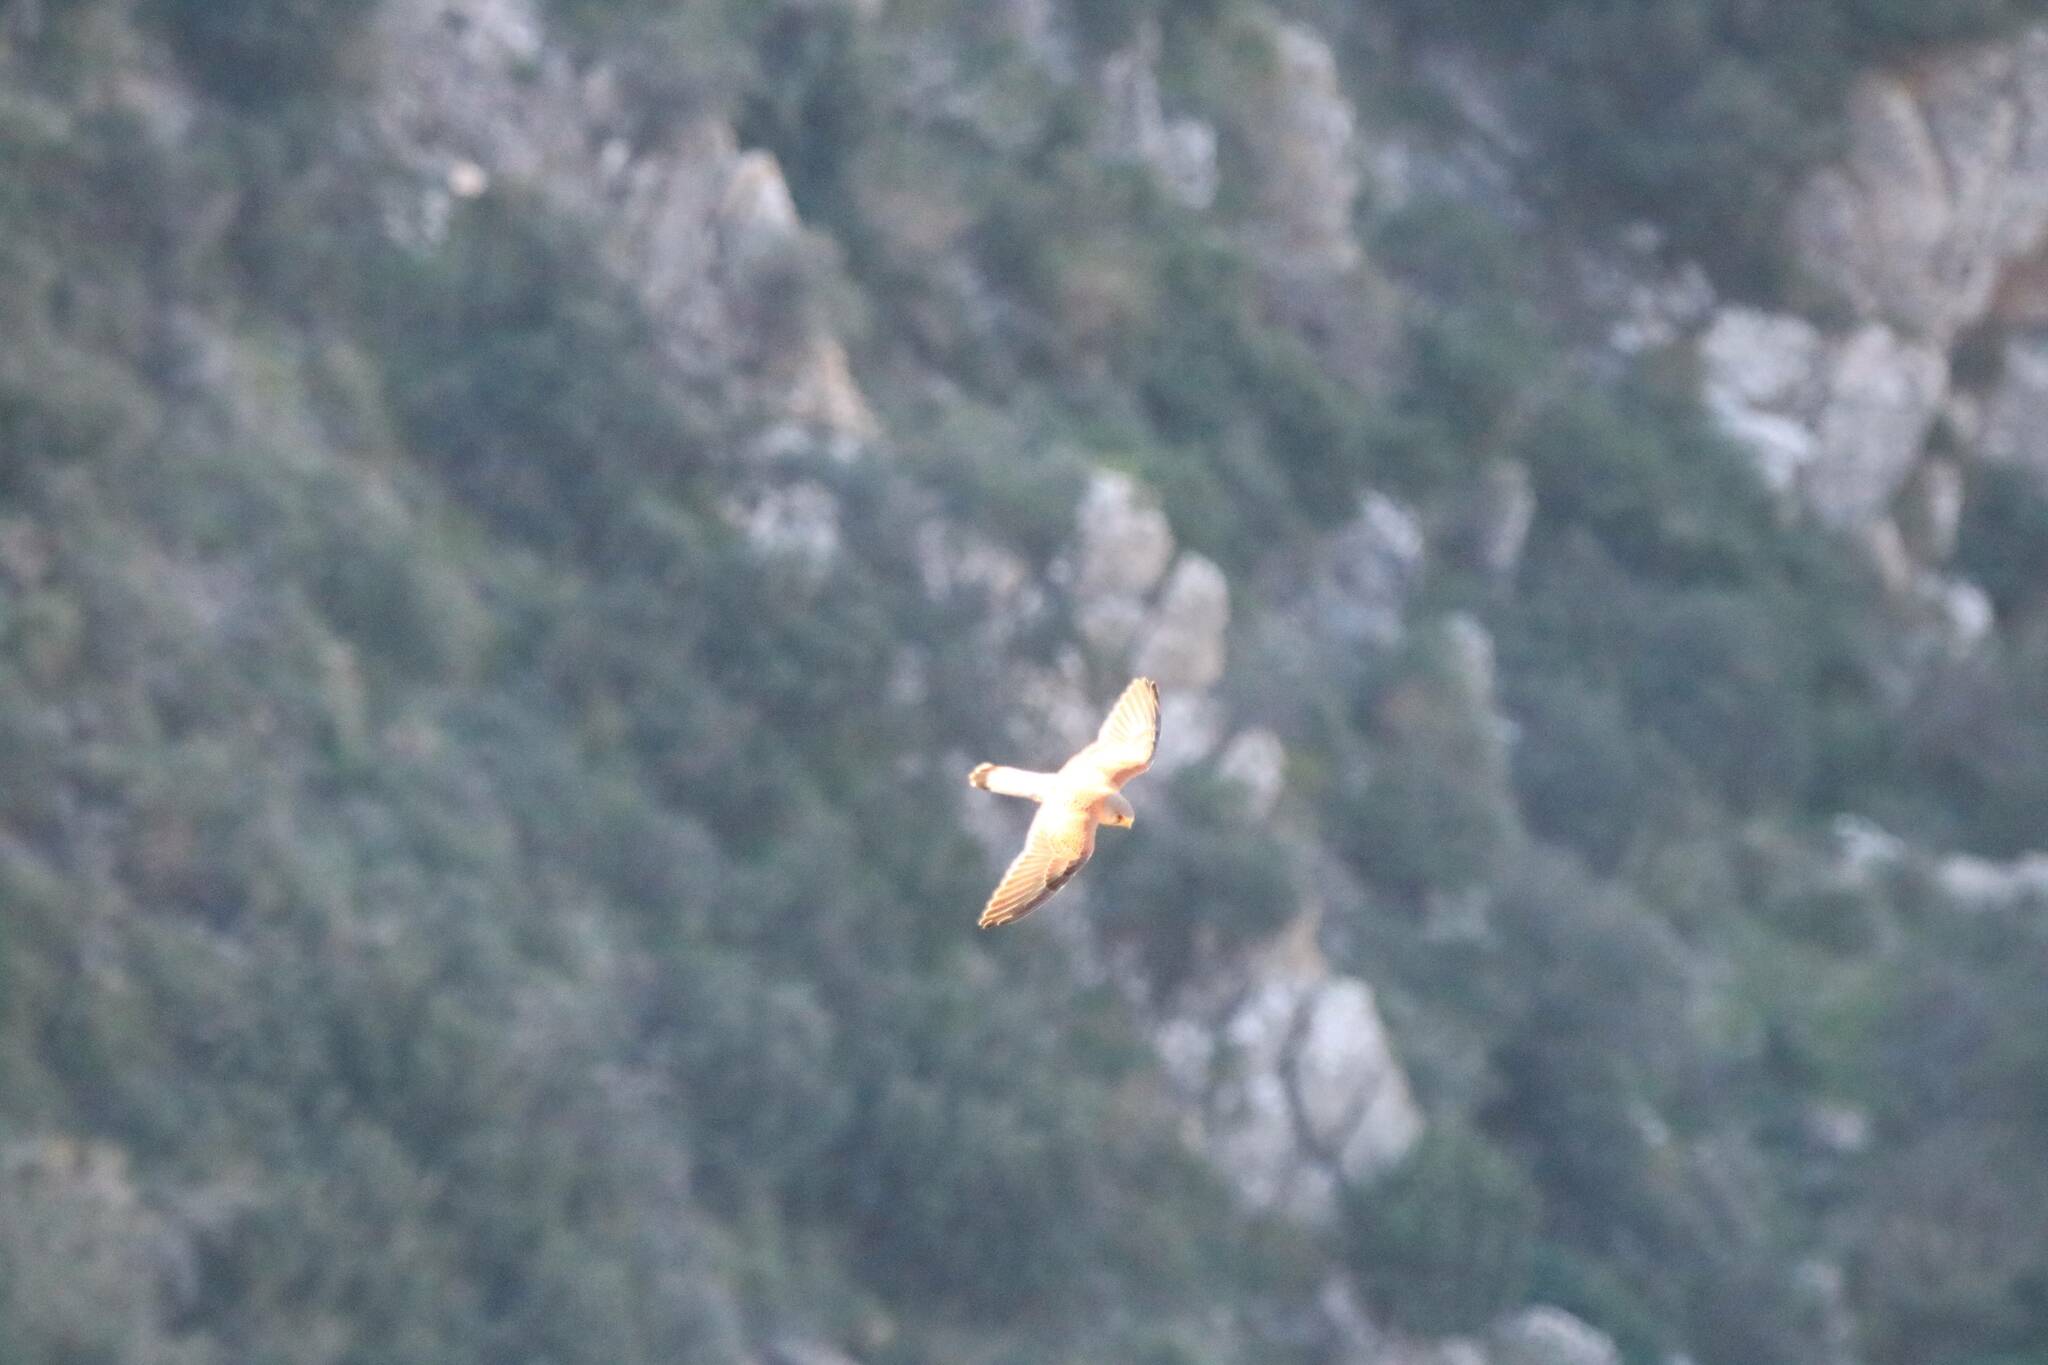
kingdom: Animalia
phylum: Chordata
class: Aves
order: Falconiformes
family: Falconidae
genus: Falco
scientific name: Falco naumanni
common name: Lesser kestrel
